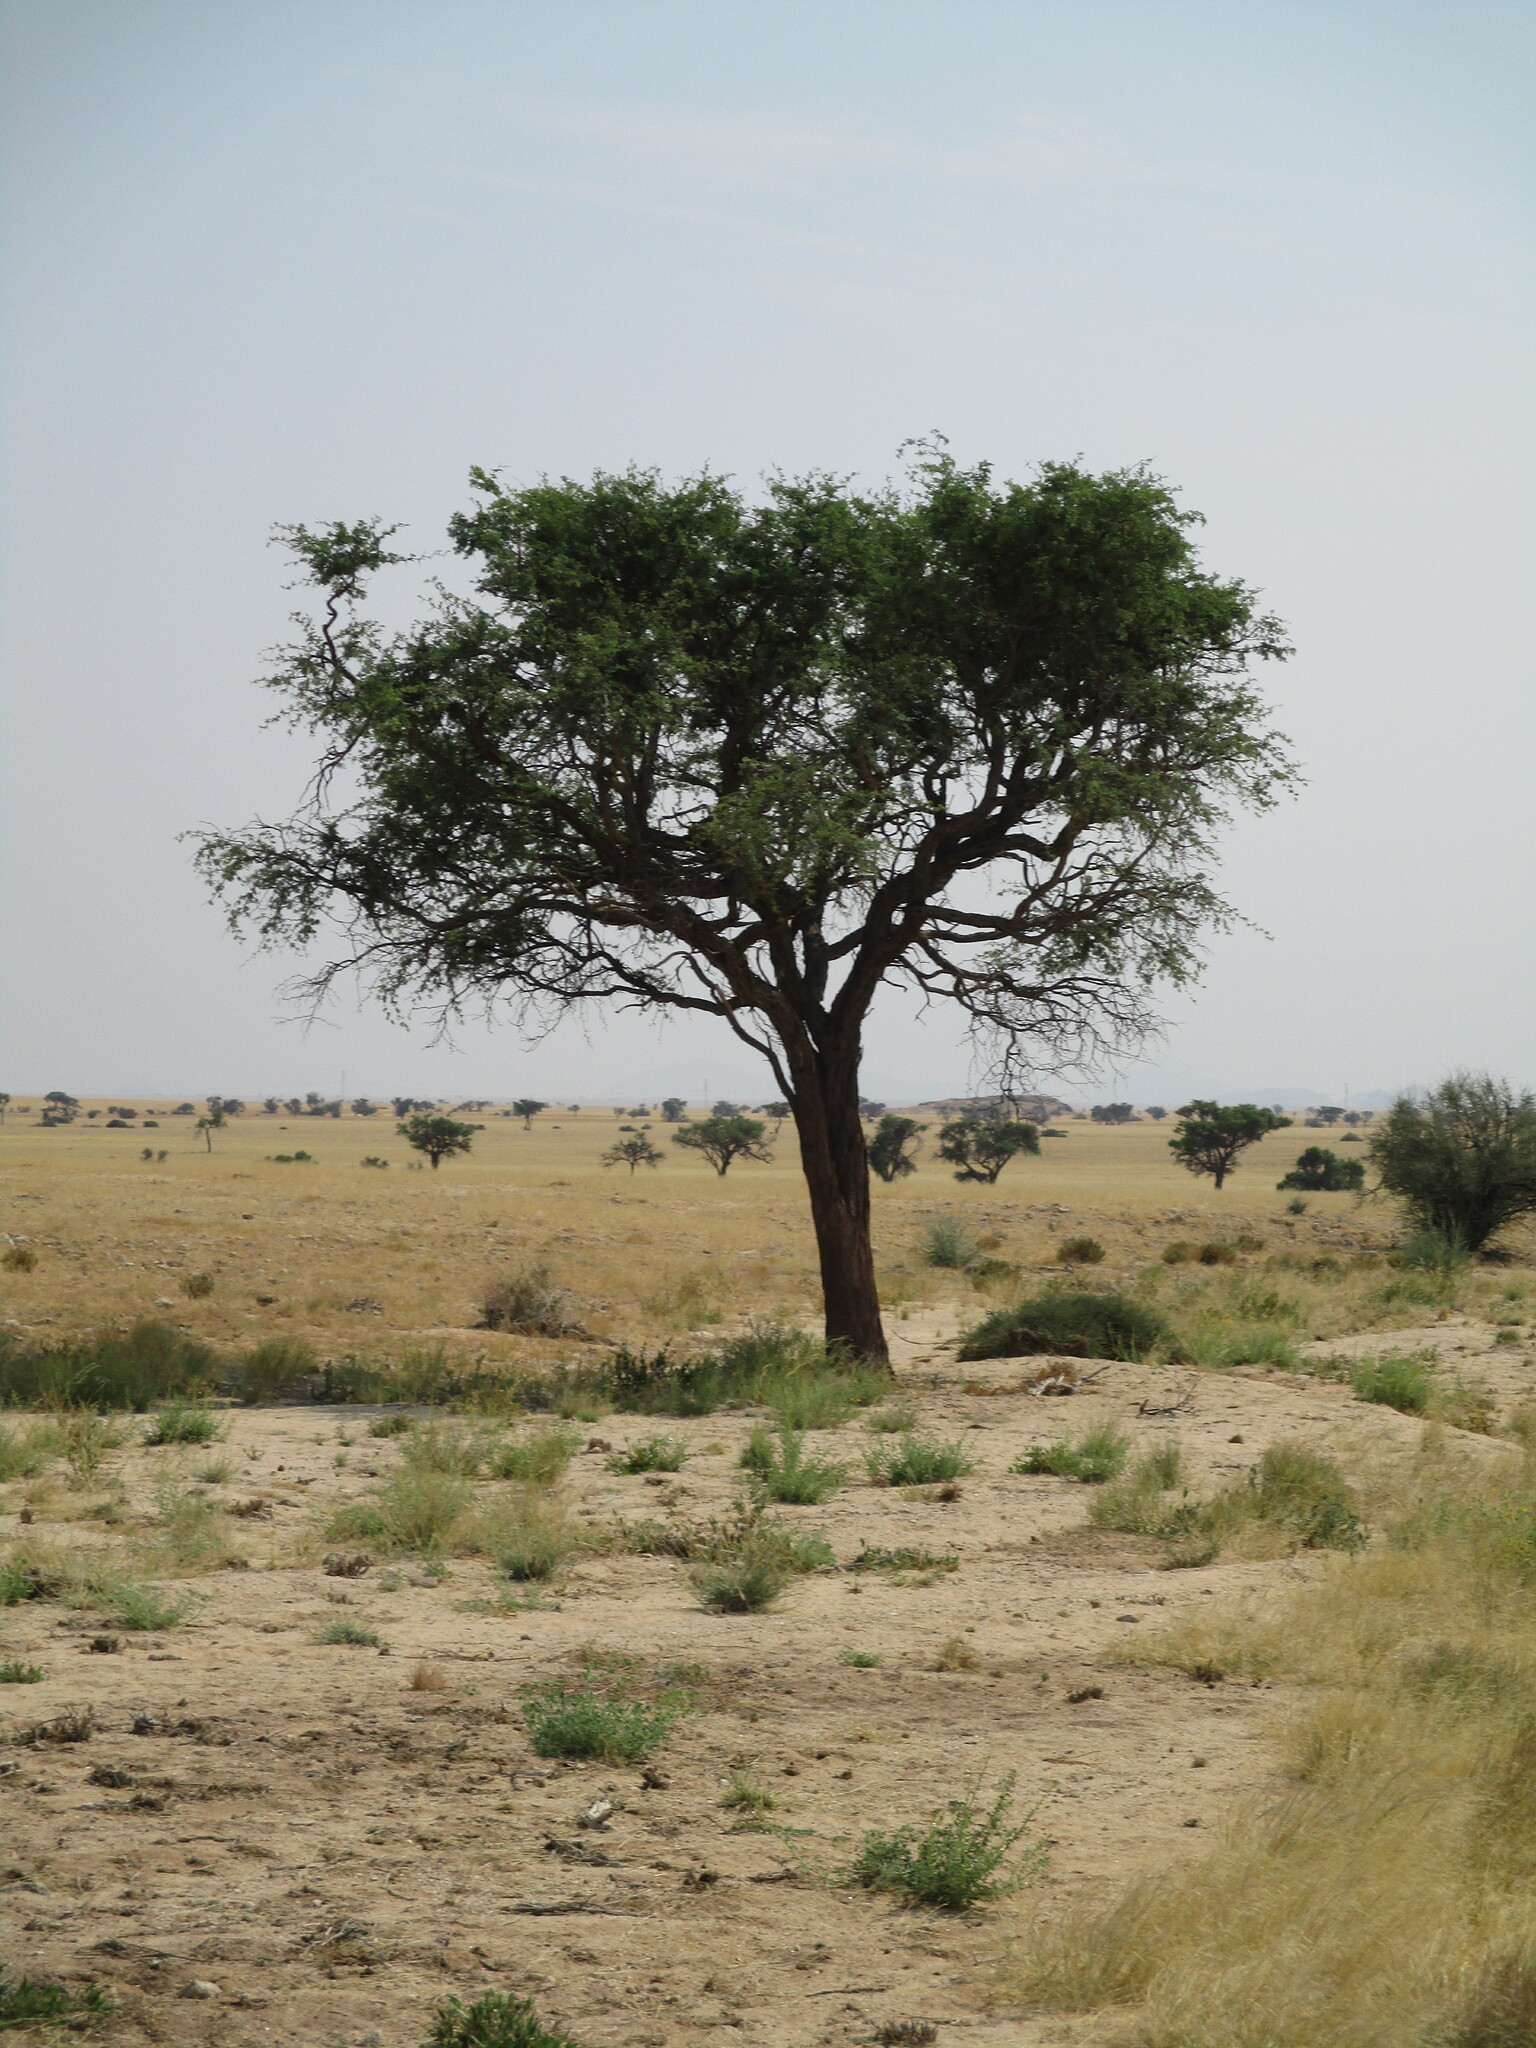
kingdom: Plantae
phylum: Tracheophyta
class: Magnoliopsida
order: Fabales
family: Fabaceae
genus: Vachellia
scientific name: Vachellia erioloba
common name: Camel thorn
